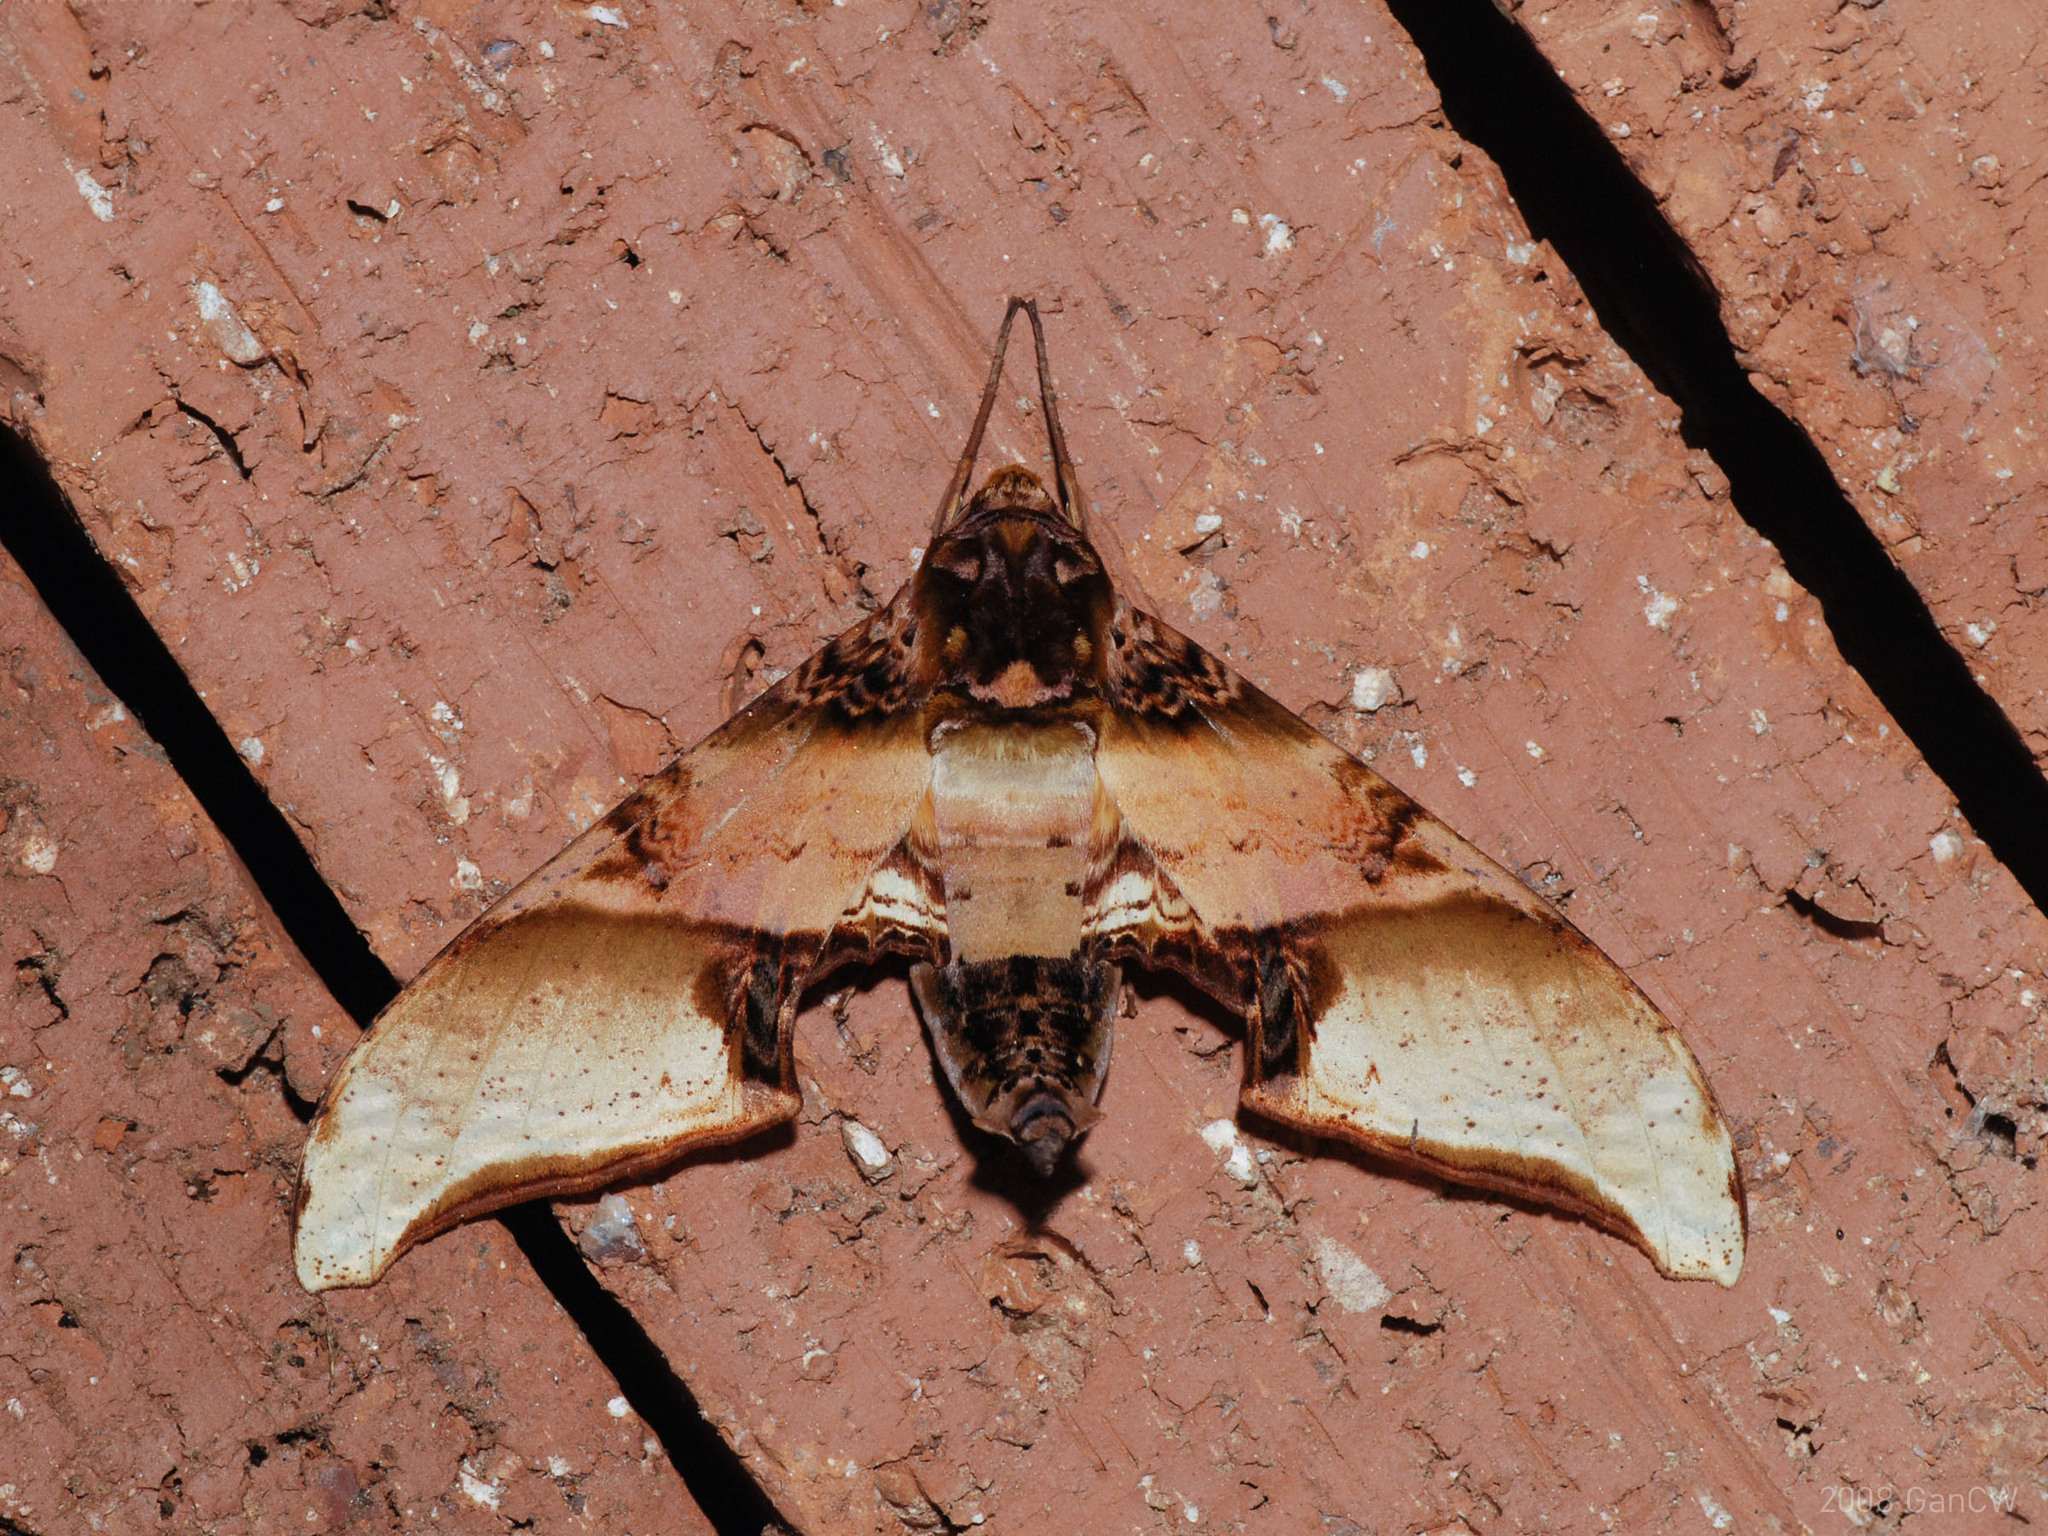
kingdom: Animalia
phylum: Arthropoda
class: Insecta
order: Lepidoptera
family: Sphingidae
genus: Amplypterus
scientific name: Amplypterus mansoni
